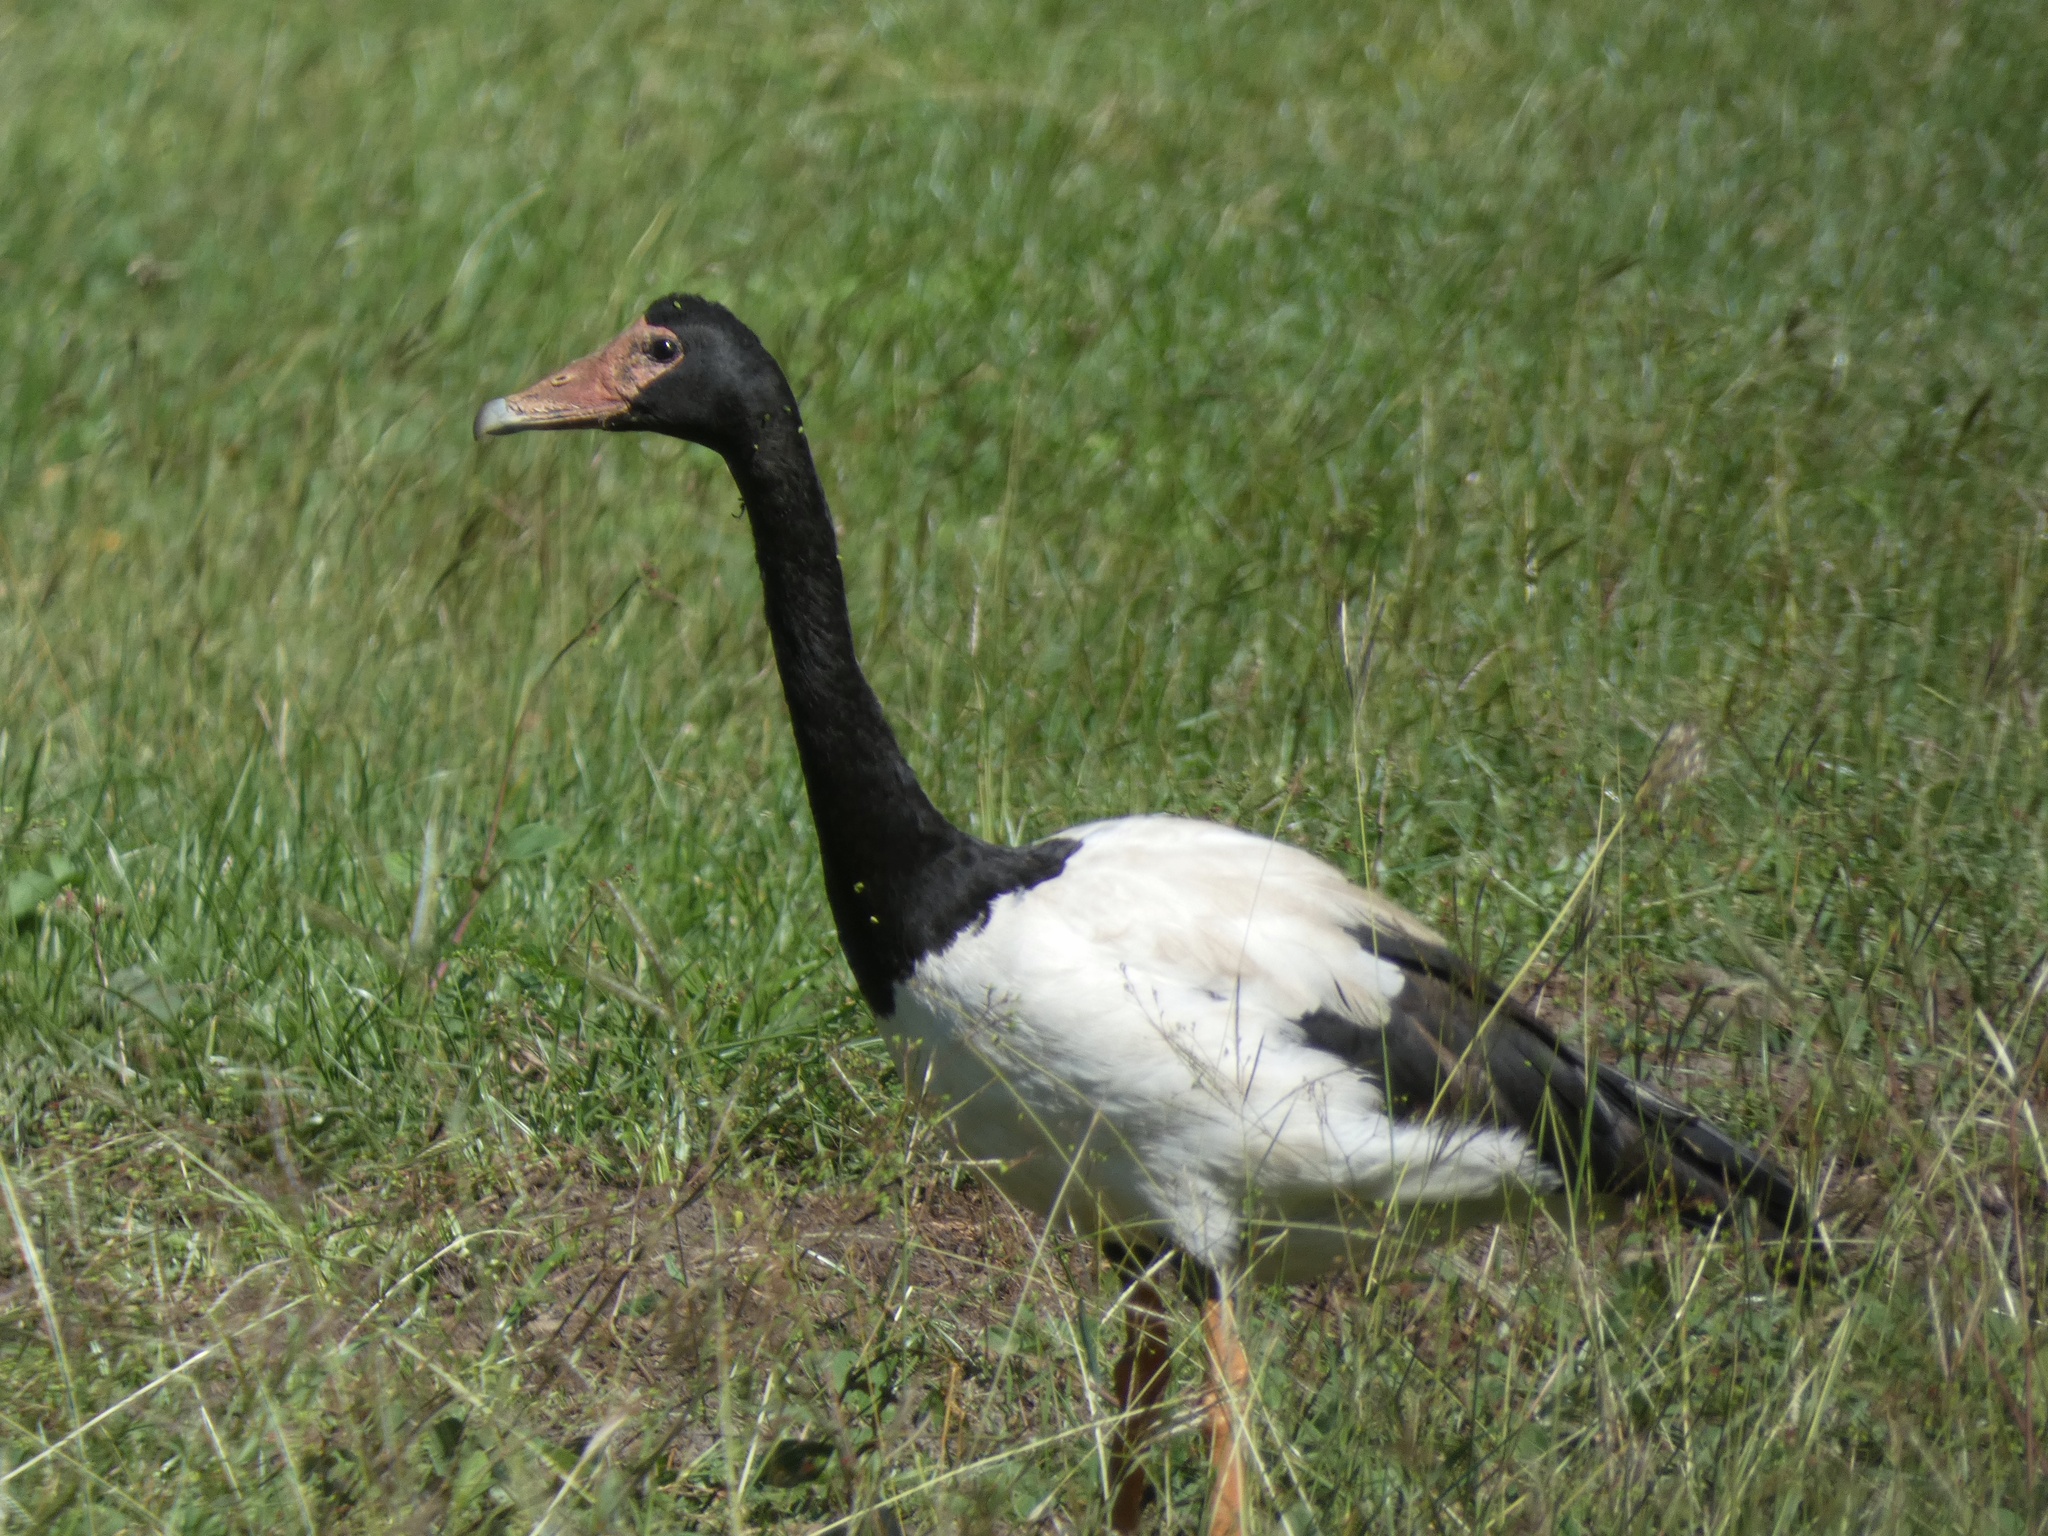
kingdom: Animalia
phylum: Chordata
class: Aves
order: Anseriformes
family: Anseranatidae
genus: Anseranas
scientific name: Anseranas semipalmata
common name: Magpie goose
